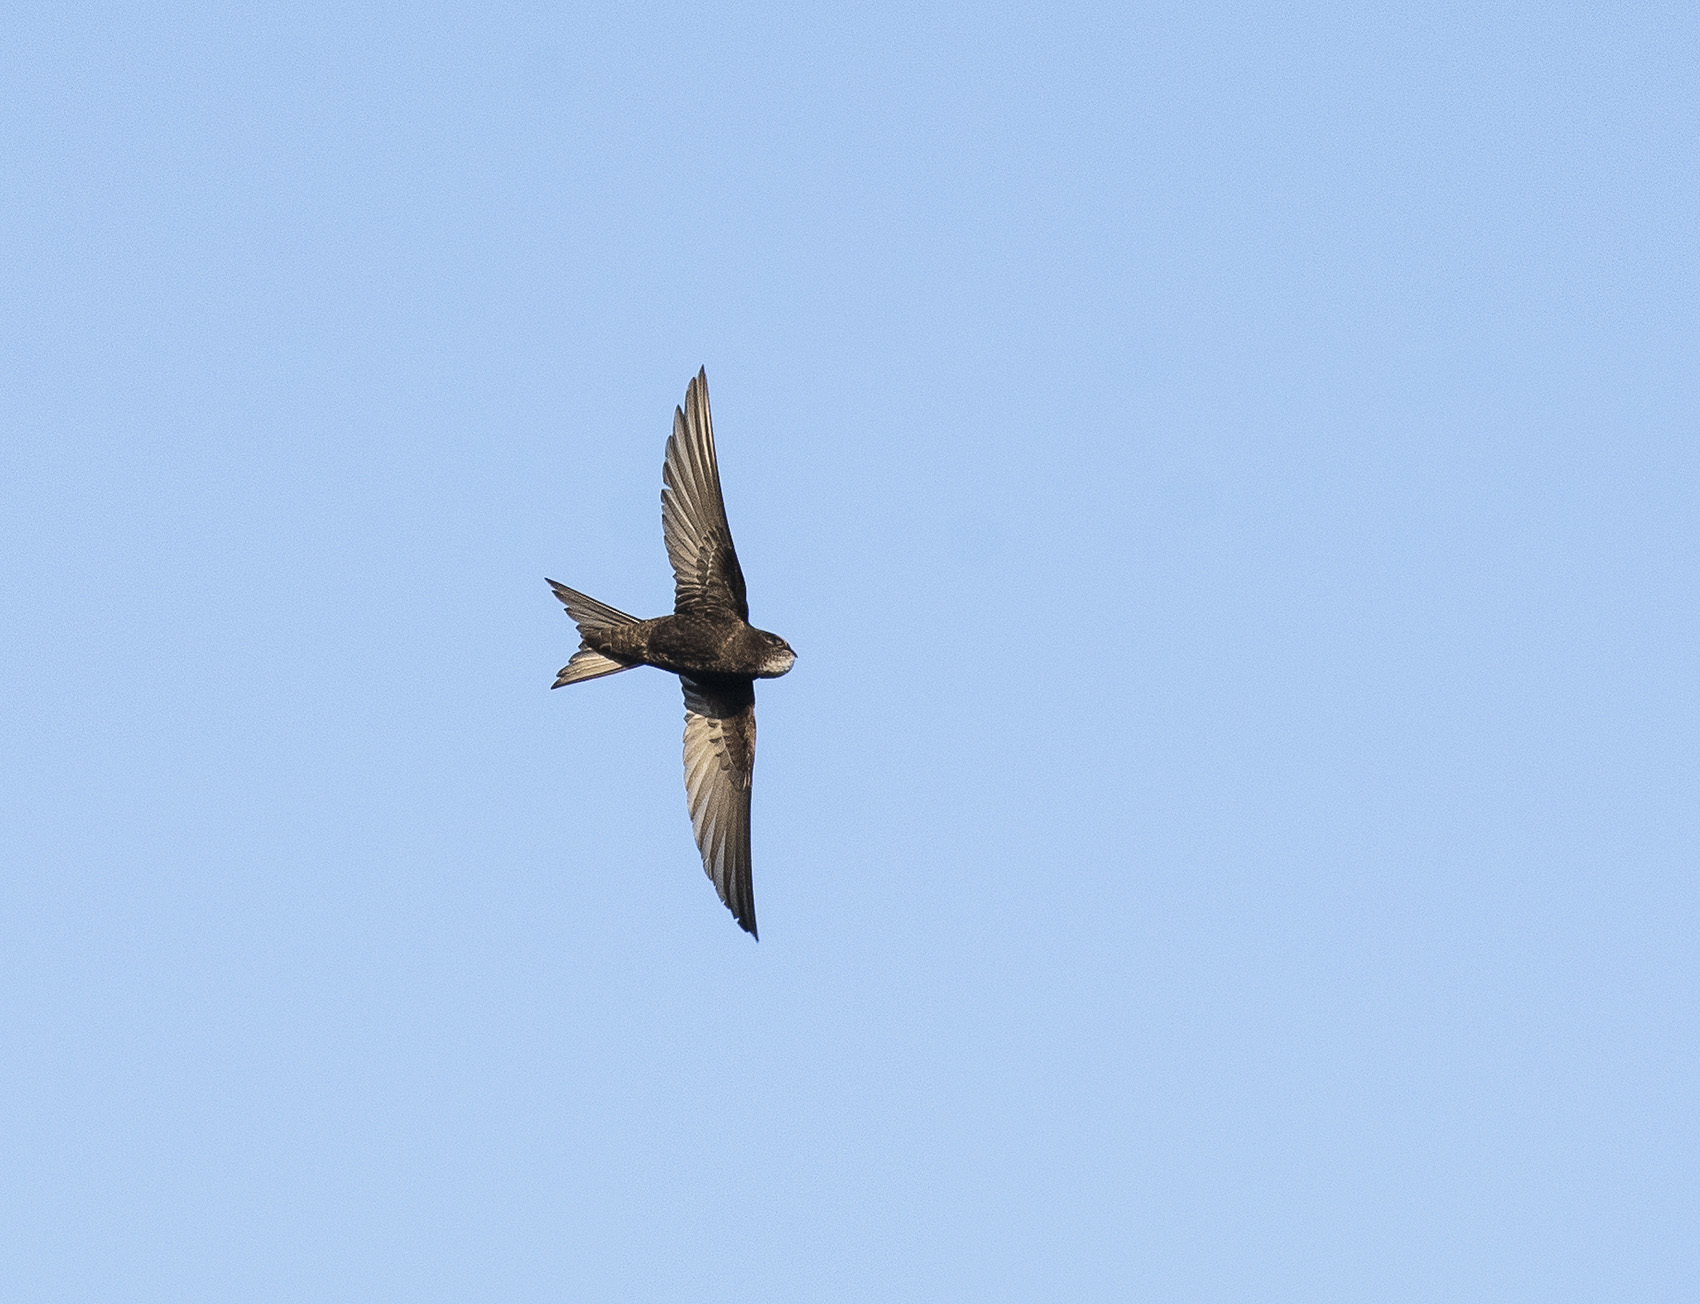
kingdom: Animalia
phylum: Chordata
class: Aves
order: Apodiformes
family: Apodidae
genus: Apus
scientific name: Apus apus
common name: Common swift
